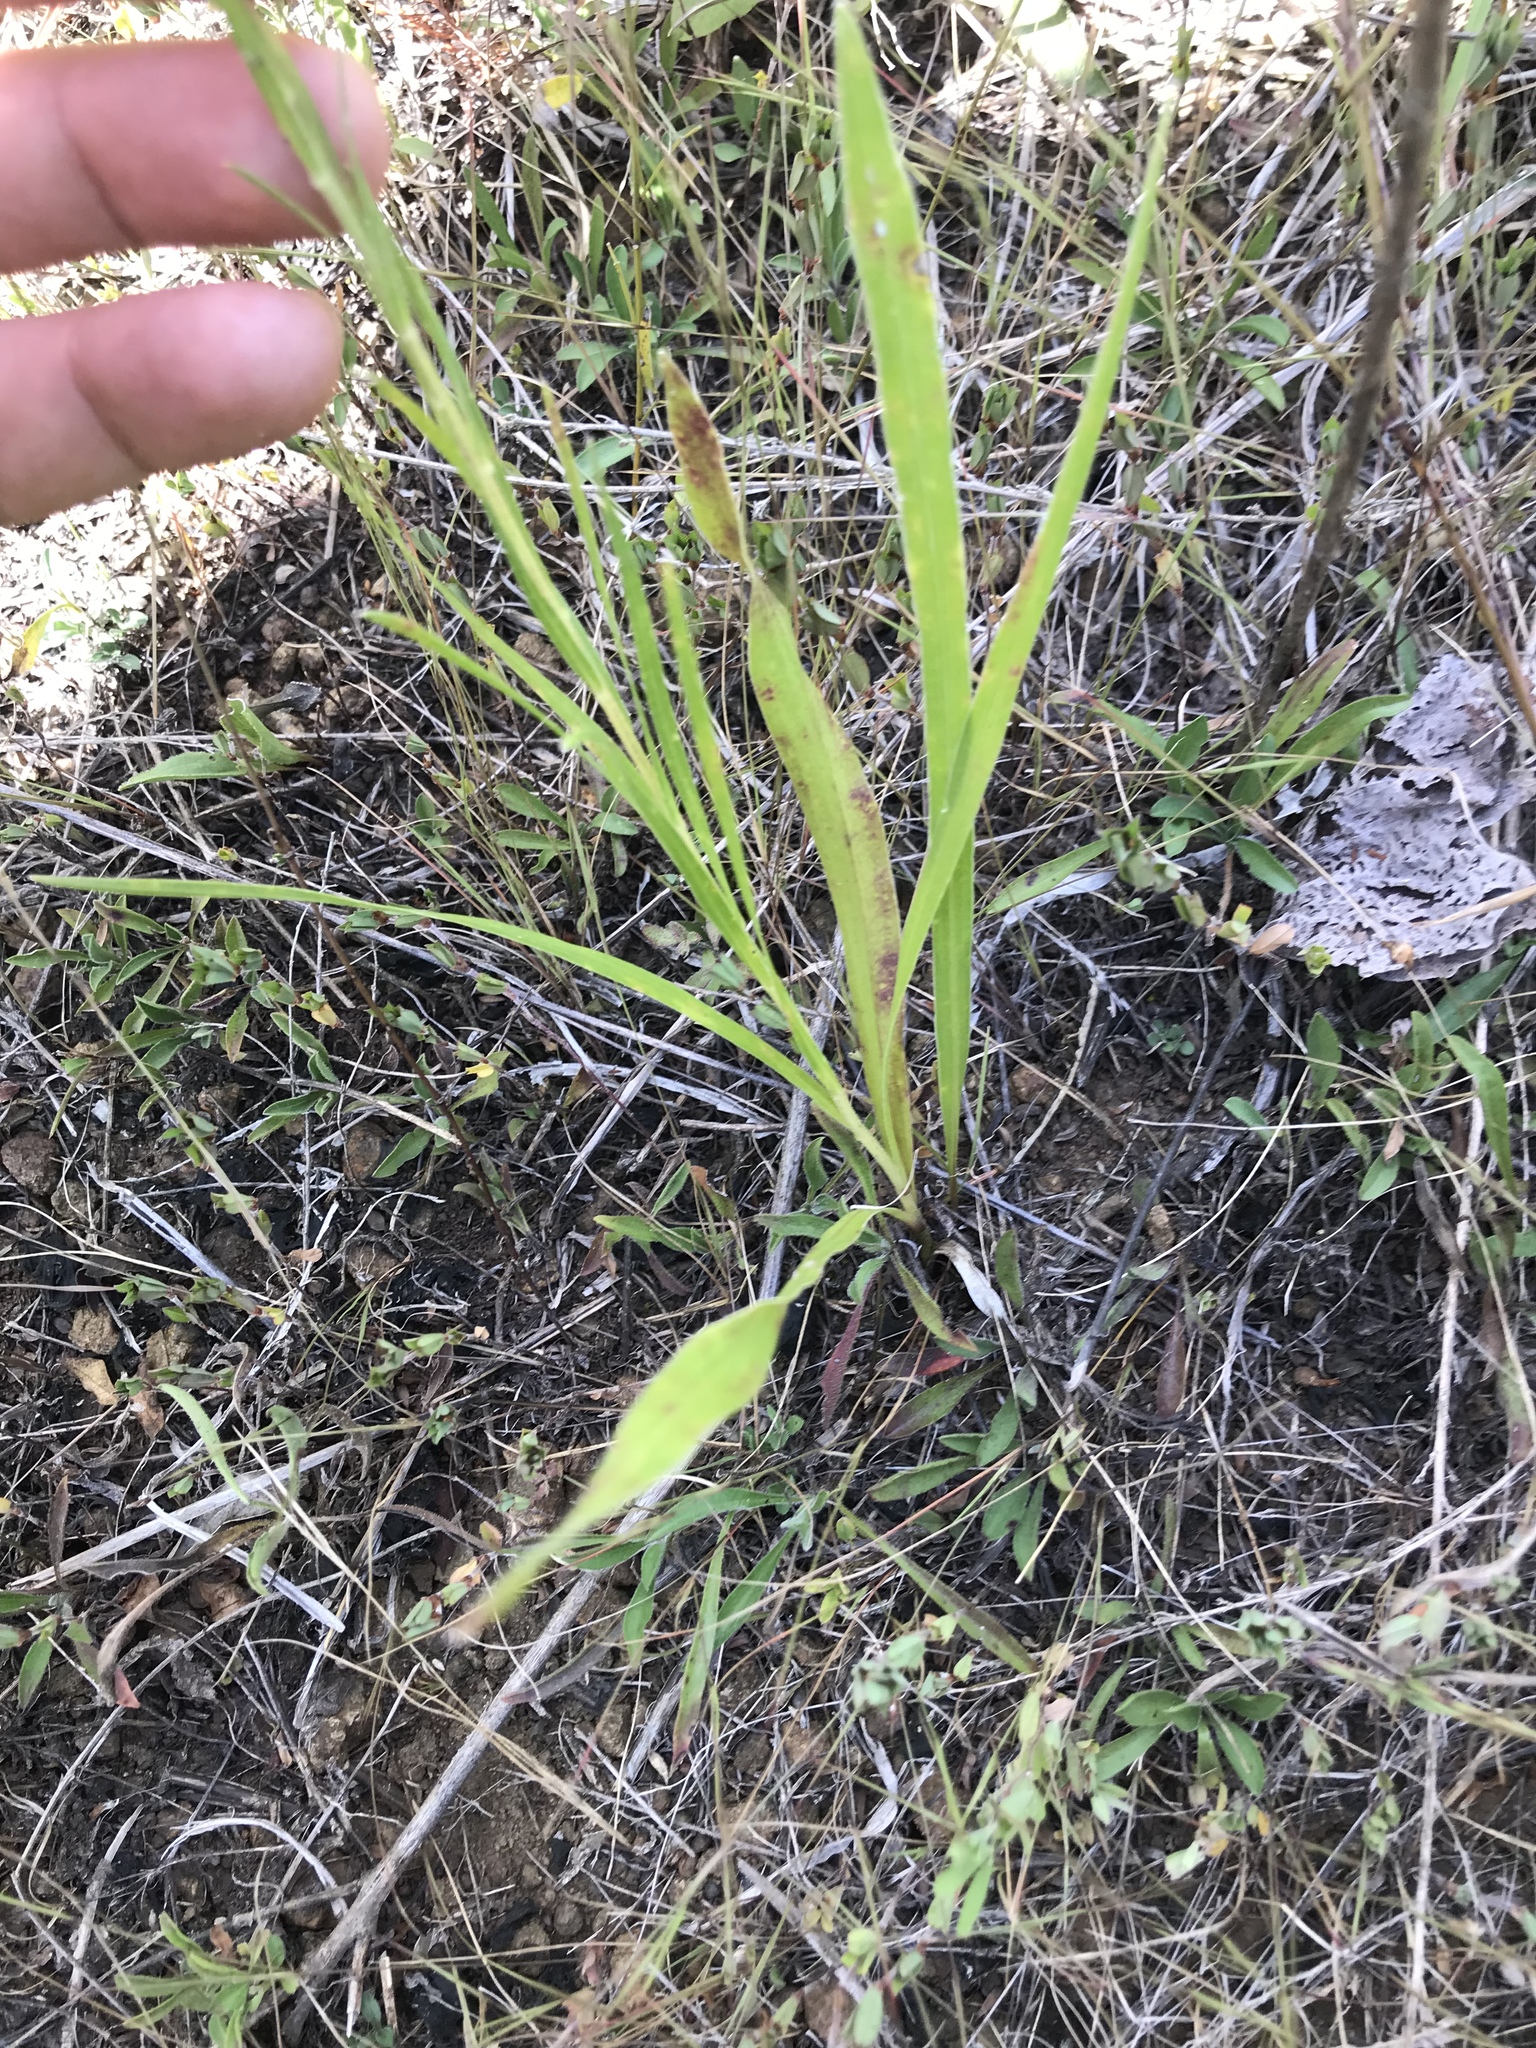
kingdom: Plantae
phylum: Tracheophyta
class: Magnoliopsida
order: Asterales
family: Asteraceae
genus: Liatris
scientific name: Liatris squarrosa
